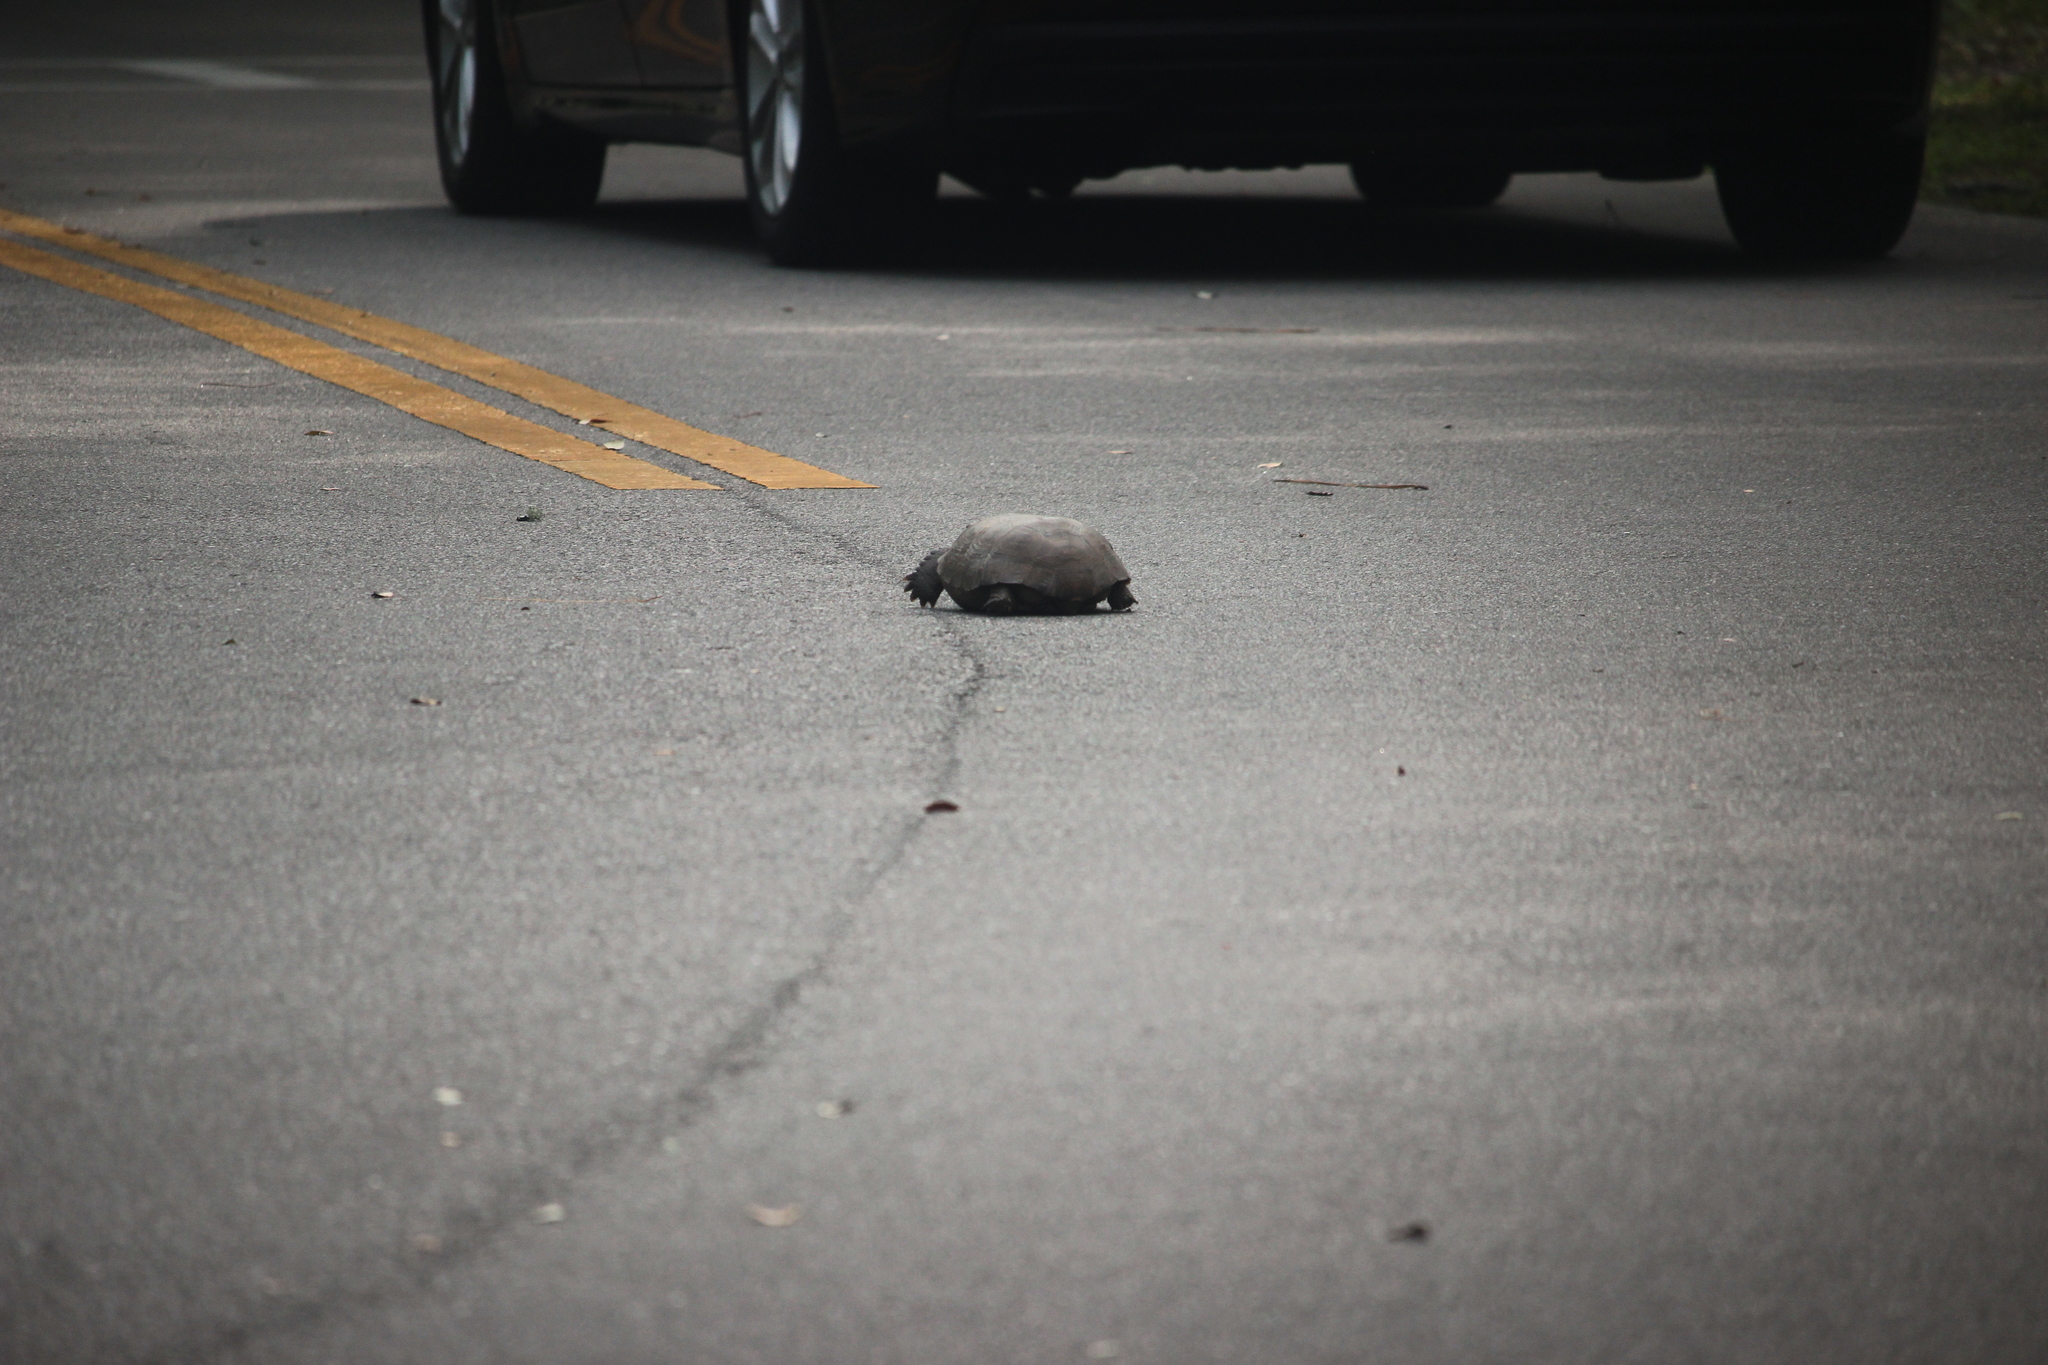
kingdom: Animalia
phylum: Chordata
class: Testudines
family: Testudinidae
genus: Gopherus
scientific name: Gopherus polyphemus
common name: Florida gopher tortoise
